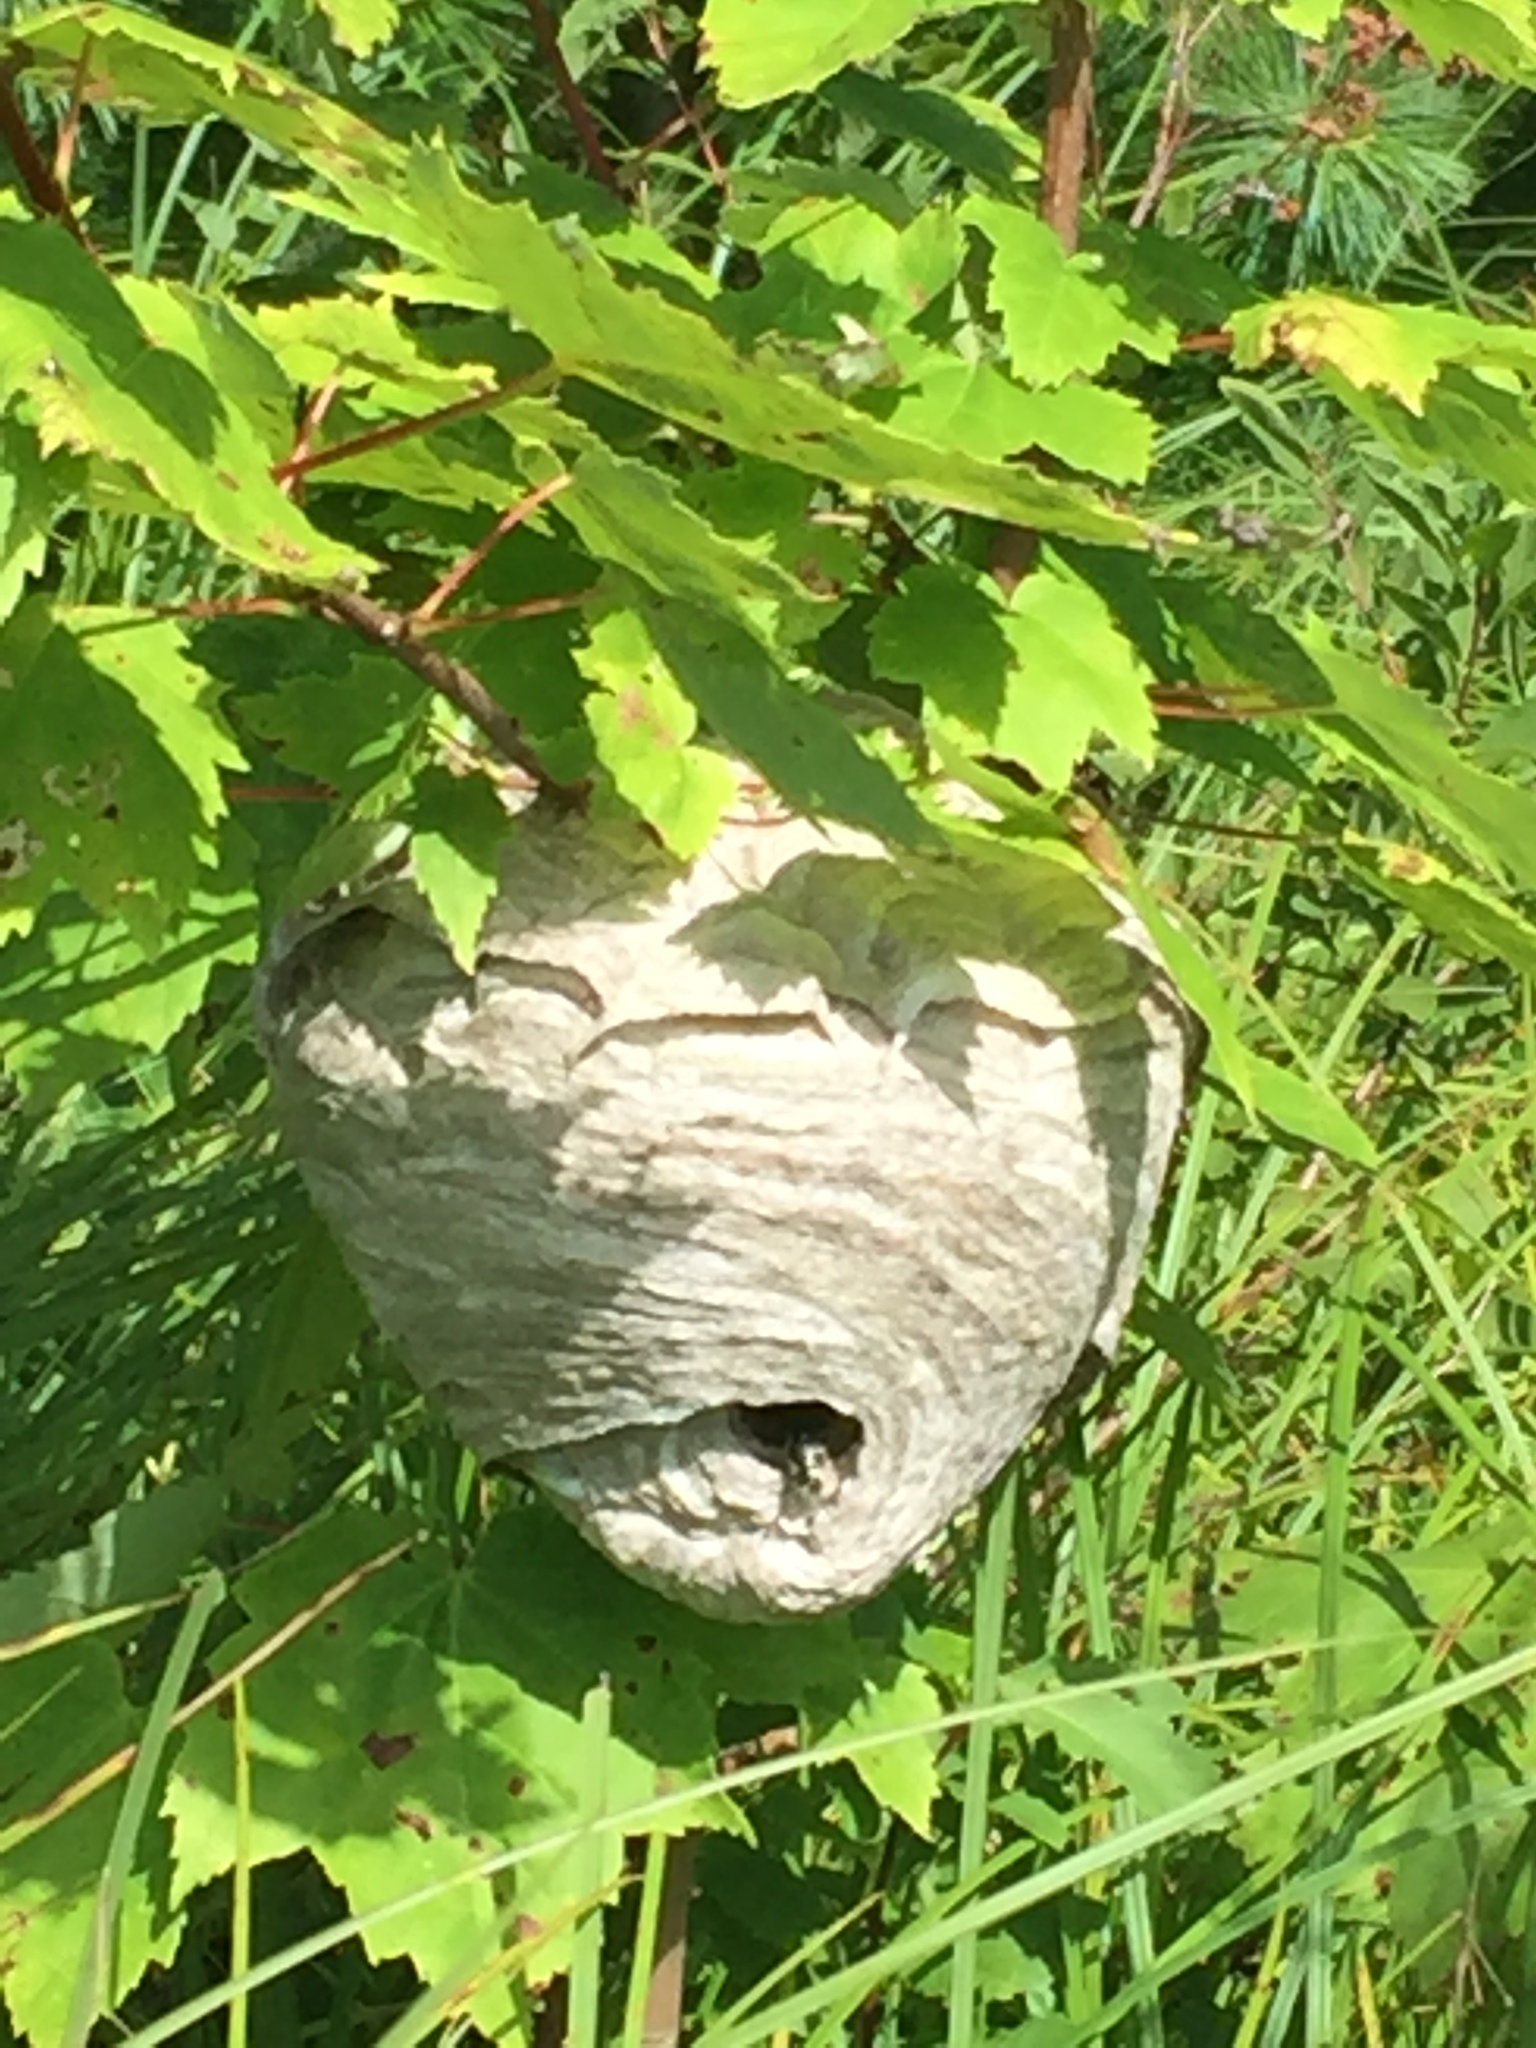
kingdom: Animalia
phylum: Arthropoda
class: Insecta
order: Hymenoptera
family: Vespidae
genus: Dolichovespula
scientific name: Dolichovespula maculata
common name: Bald-faced hornet
